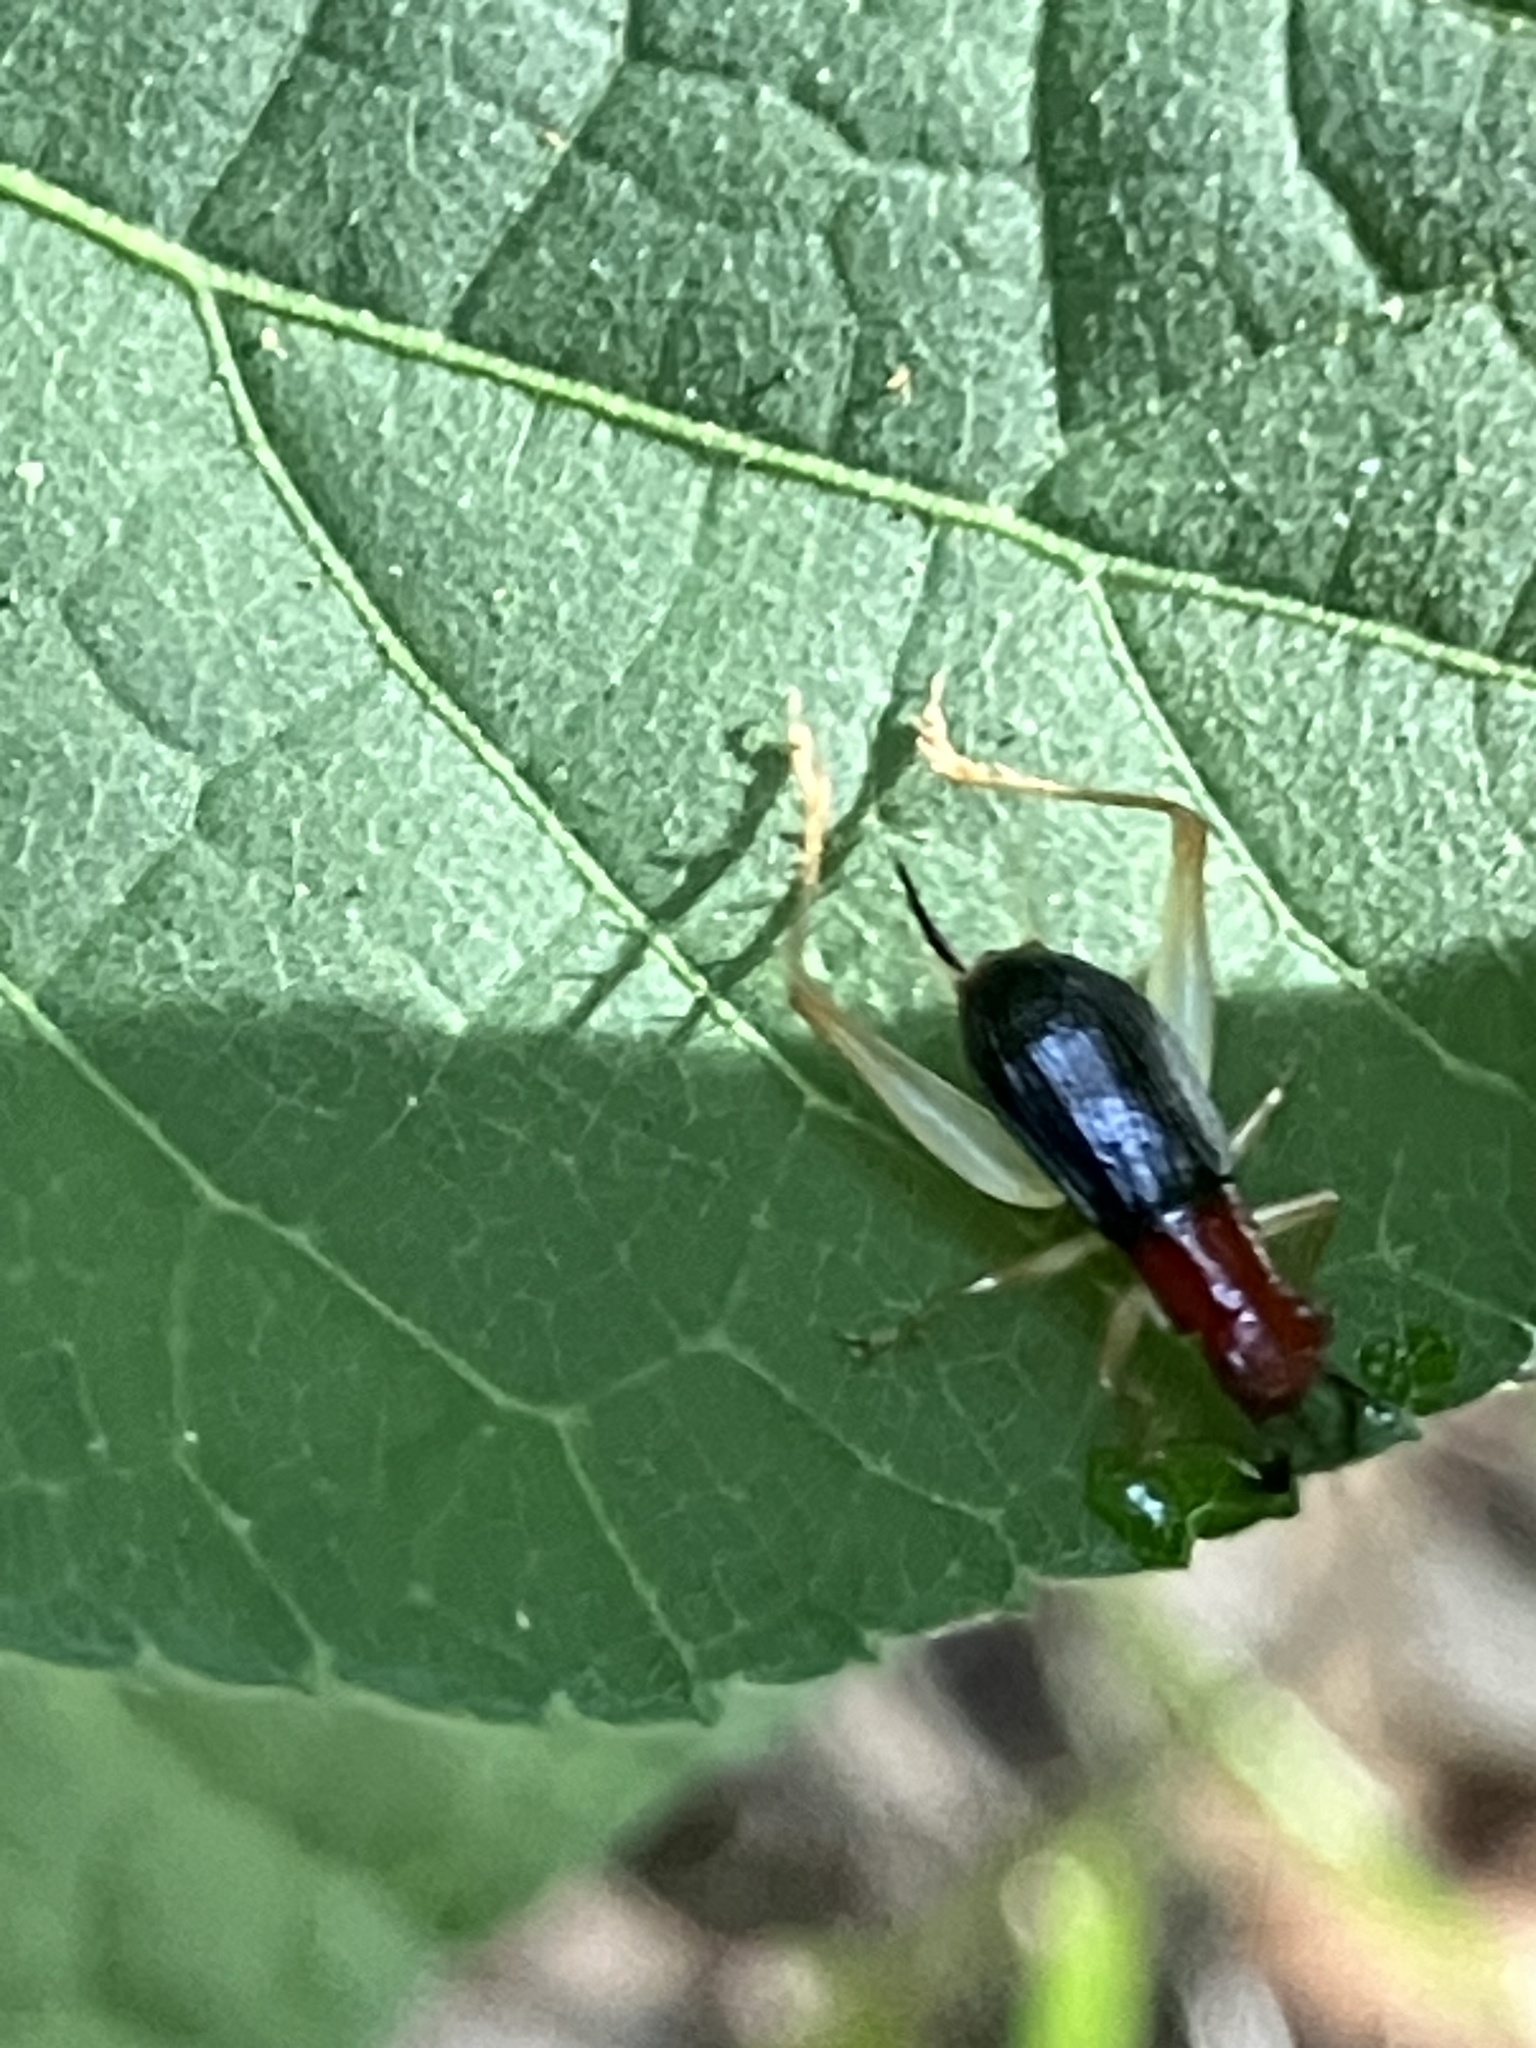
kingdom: Animalia
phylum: Arthropoda
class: Insecta
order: Orthoptera
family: Trigonidiidae
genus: Phyllopalpus
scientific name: Phyllopalpus pulchellus
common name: Handsome trig
